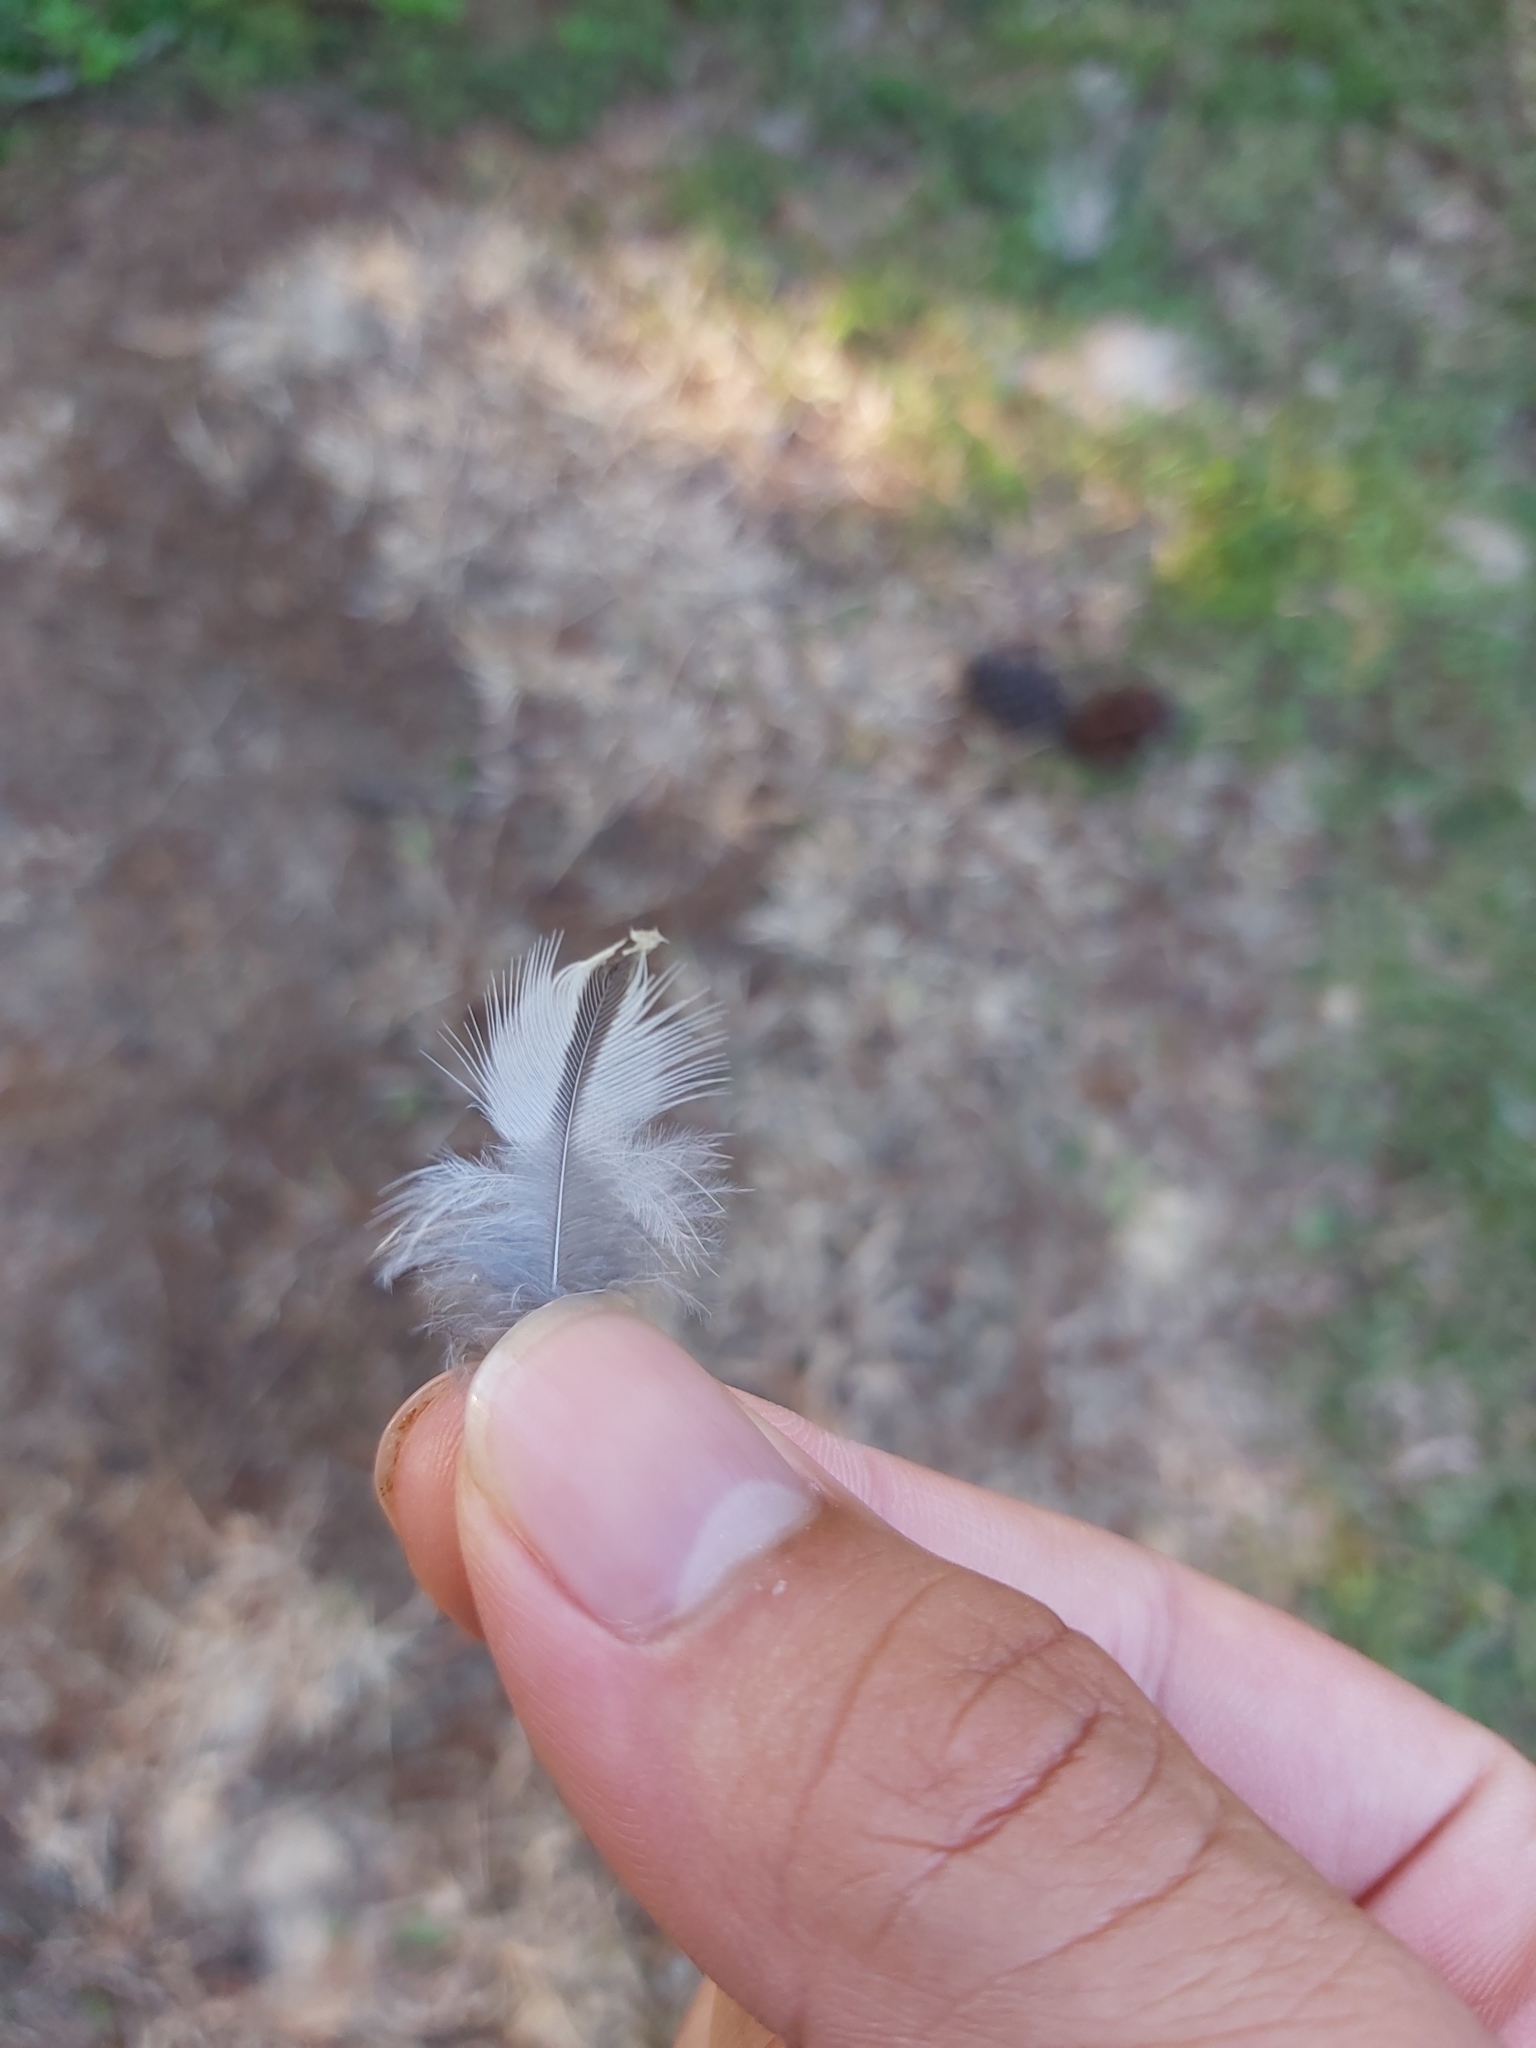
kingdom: Animalia
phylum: Chordata
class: Aves
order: Charadriiformes
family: Burhinidae
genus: Burhinus
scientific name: Burhinus grallarius
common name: Bush stone-curlew
